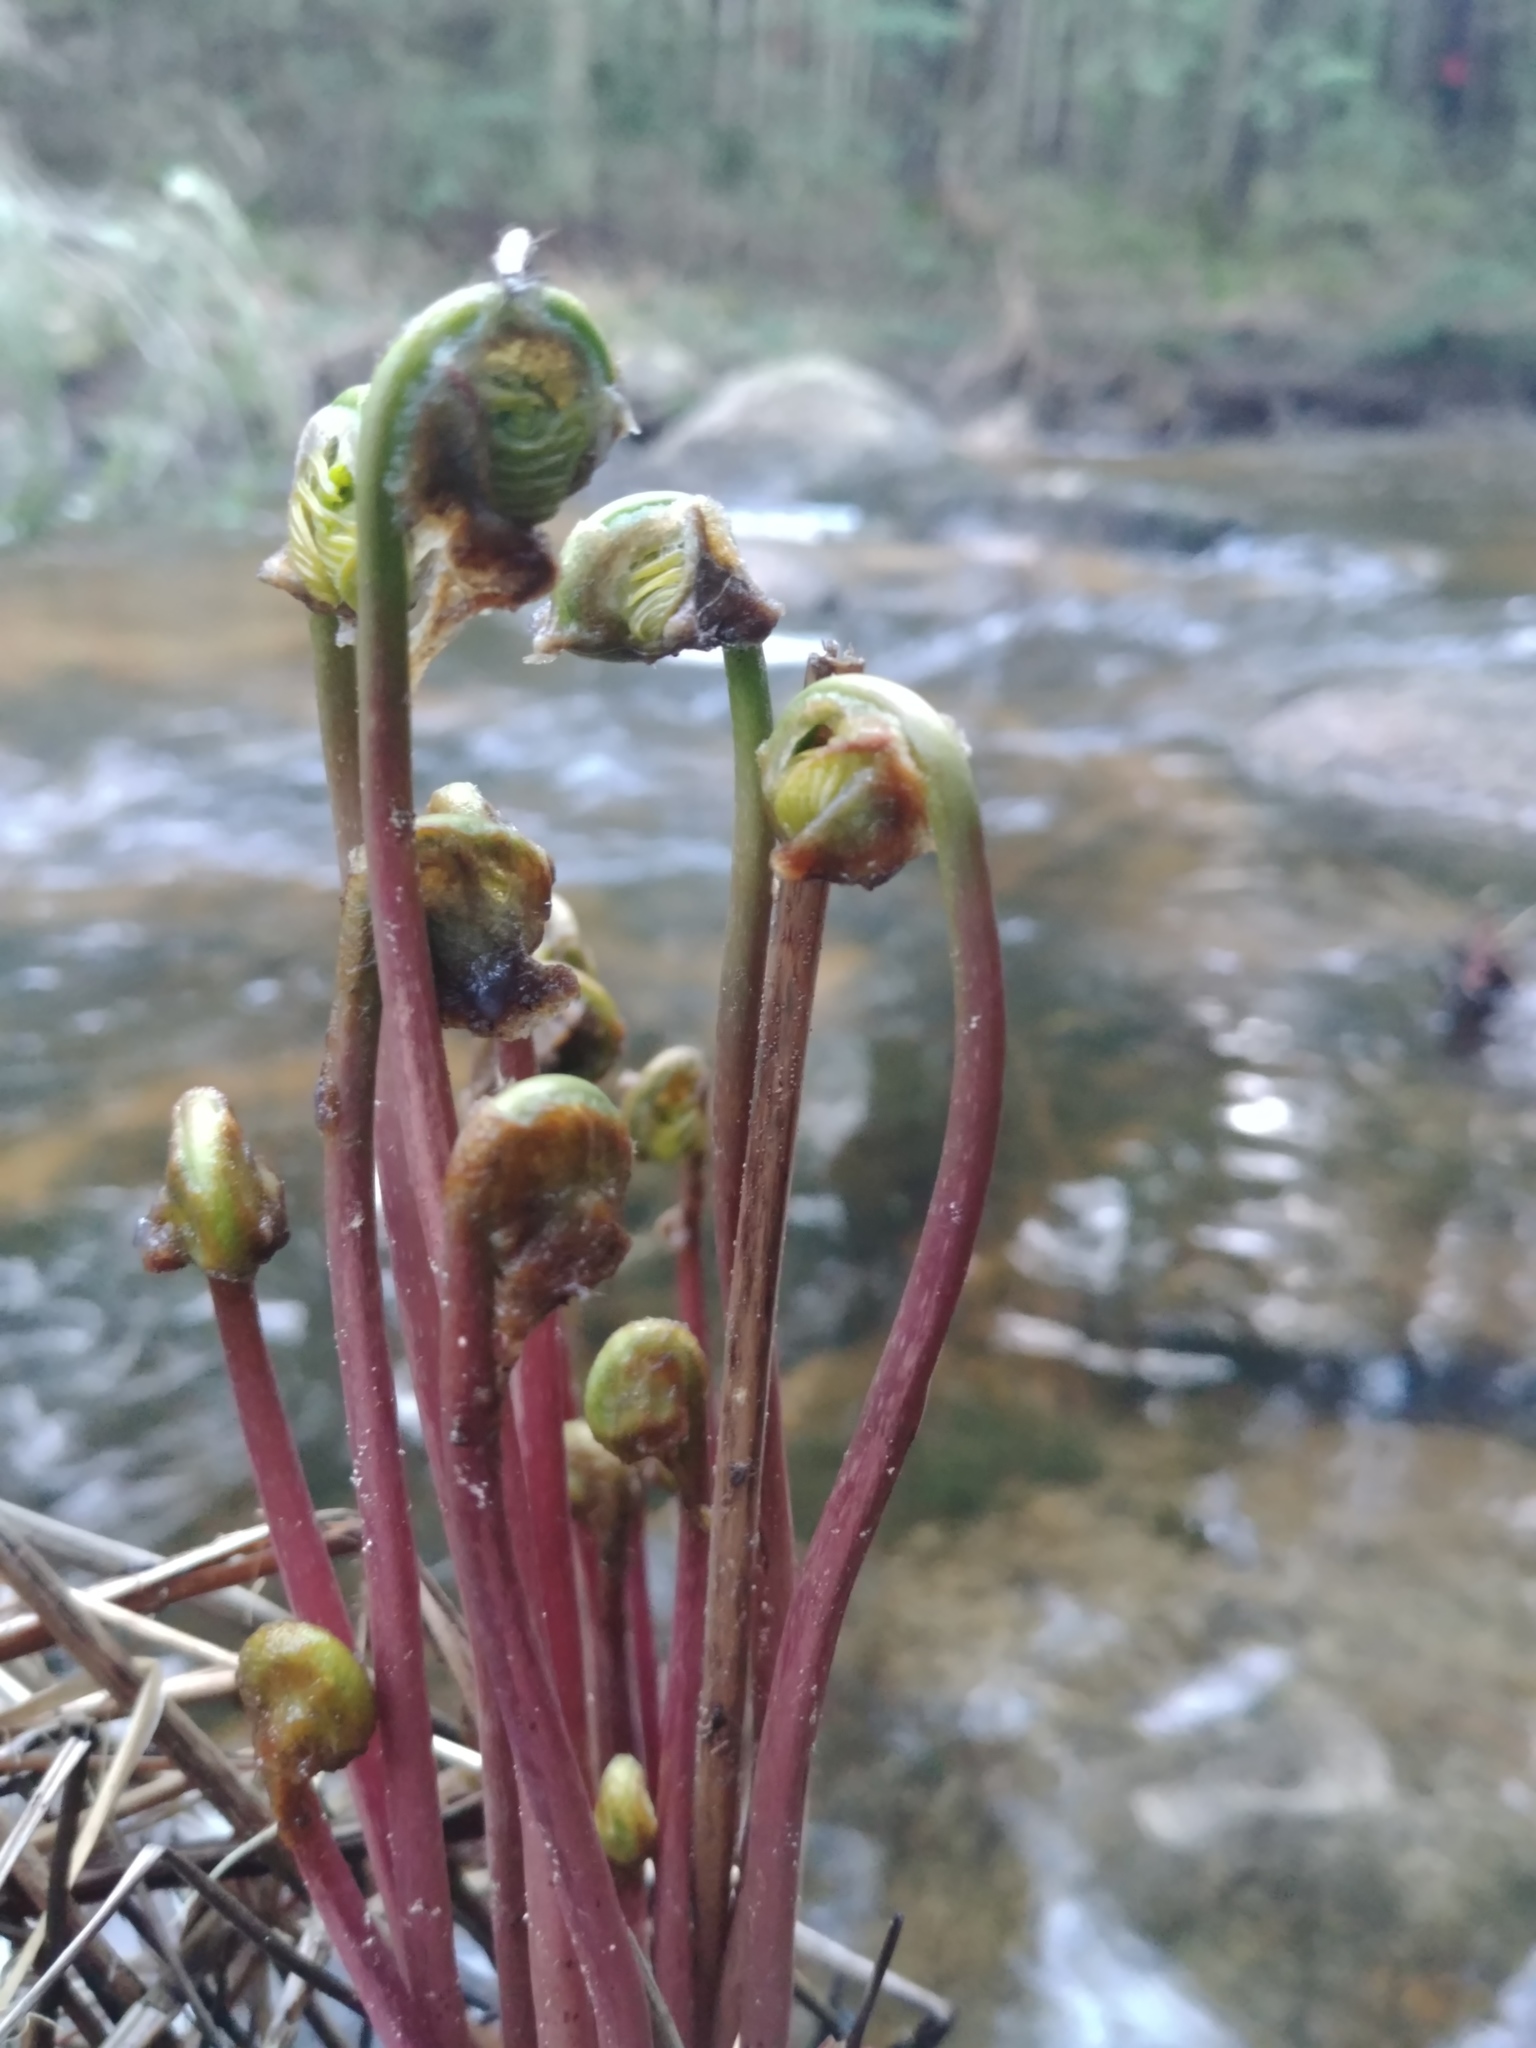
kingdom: Plantae
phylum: Tracheophyta
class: Polypodiopsida
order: Osmundales
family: Osmundaceae
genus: Osmunda
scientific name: Osmunda spectabilis
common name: American royal fern
